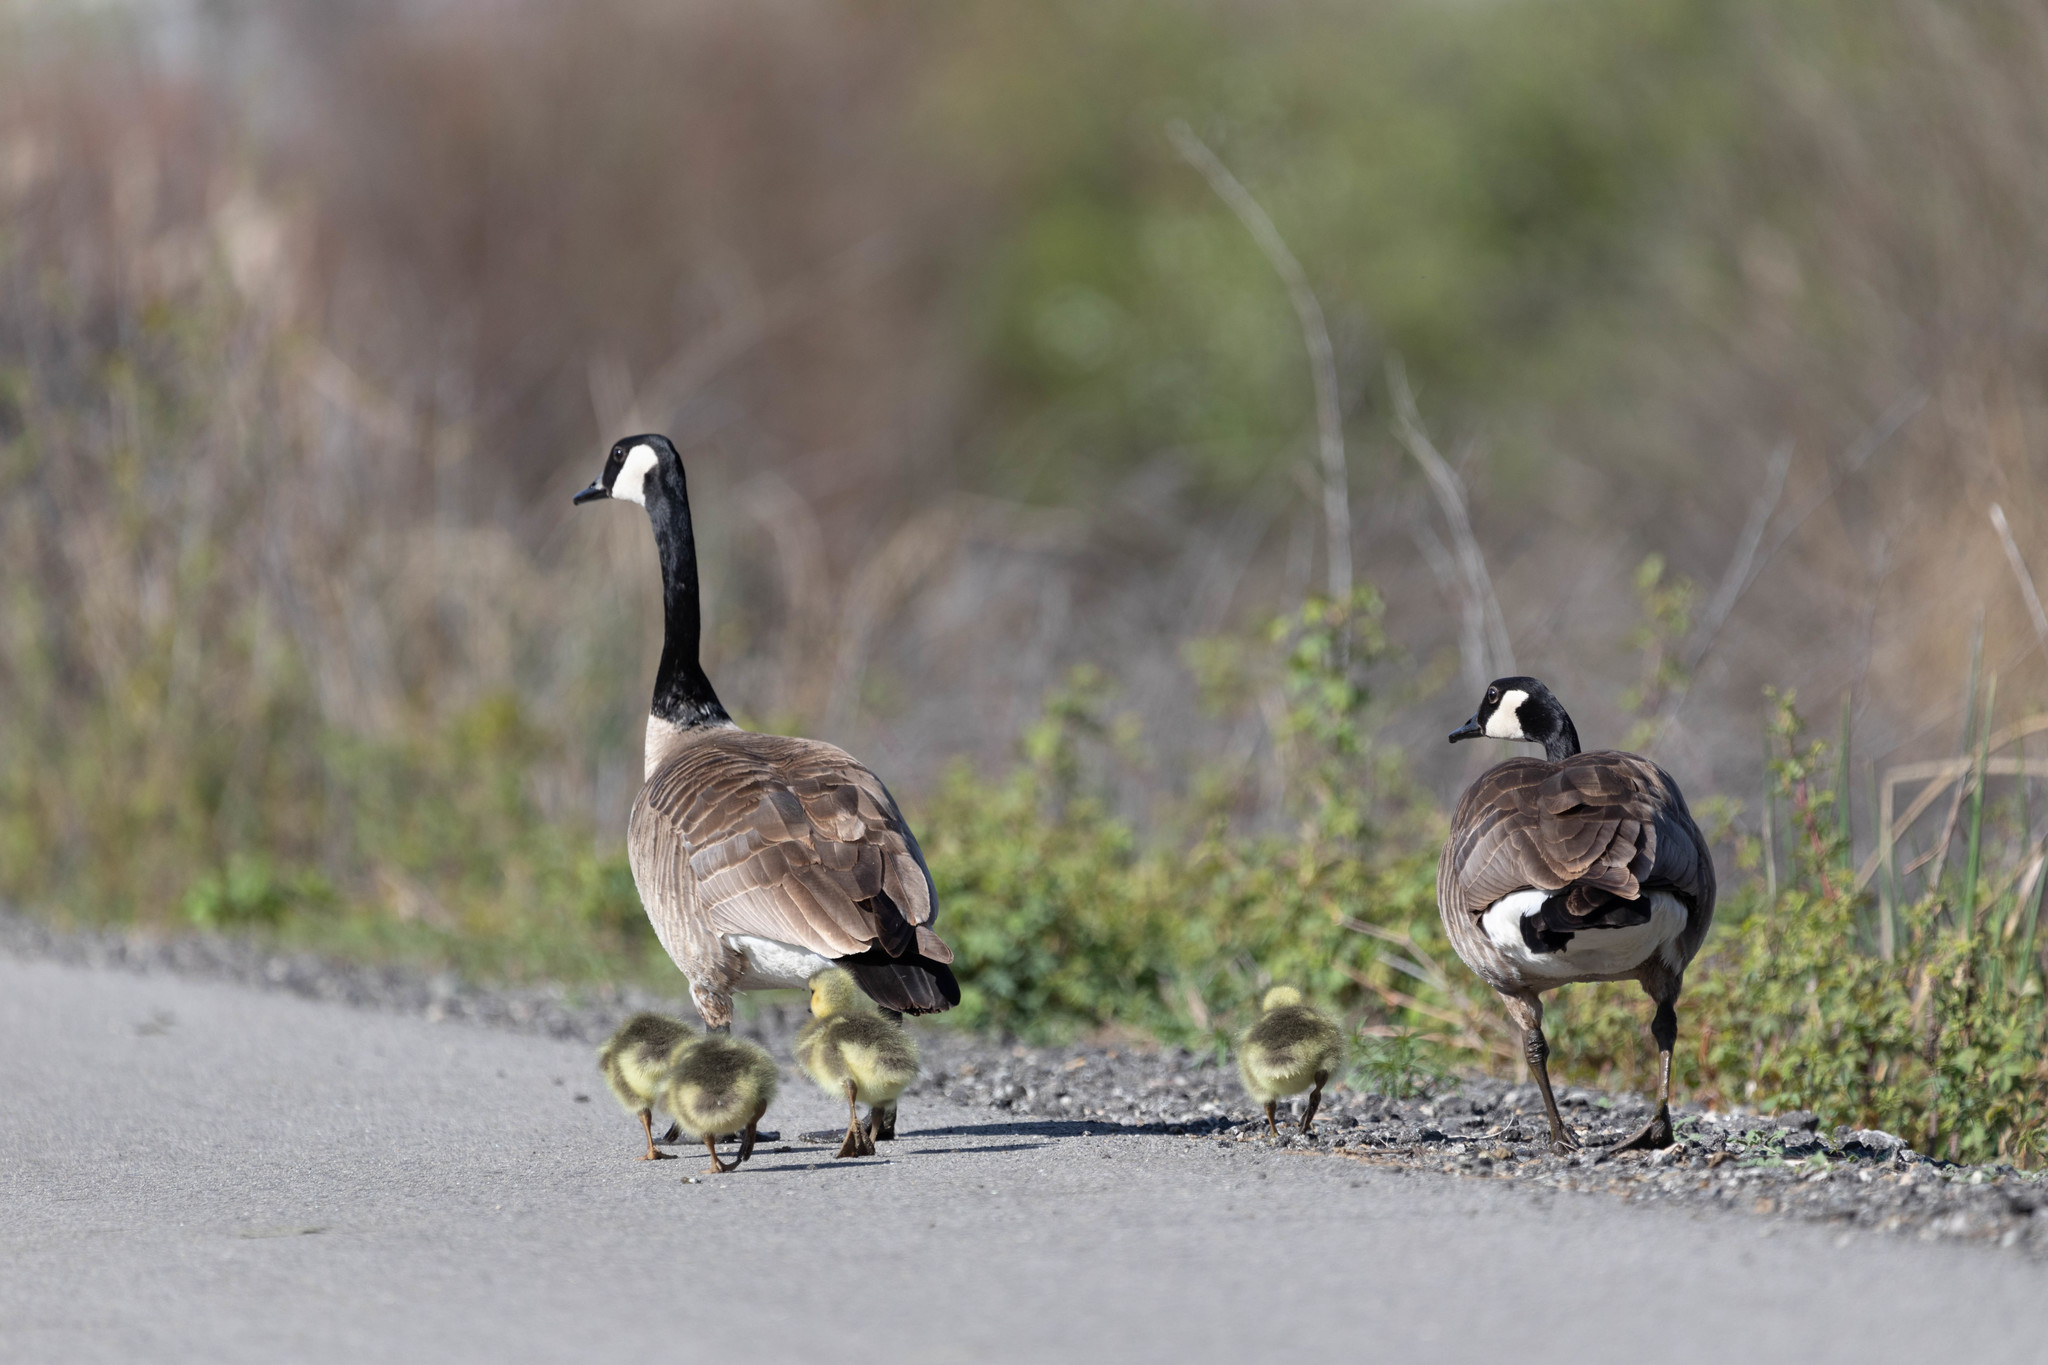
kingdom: Animalia
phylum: Chordata
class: Aves
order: Anseriformes
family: Anatidae
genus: Branta
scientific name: Branta canadensis
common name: Canada goose
